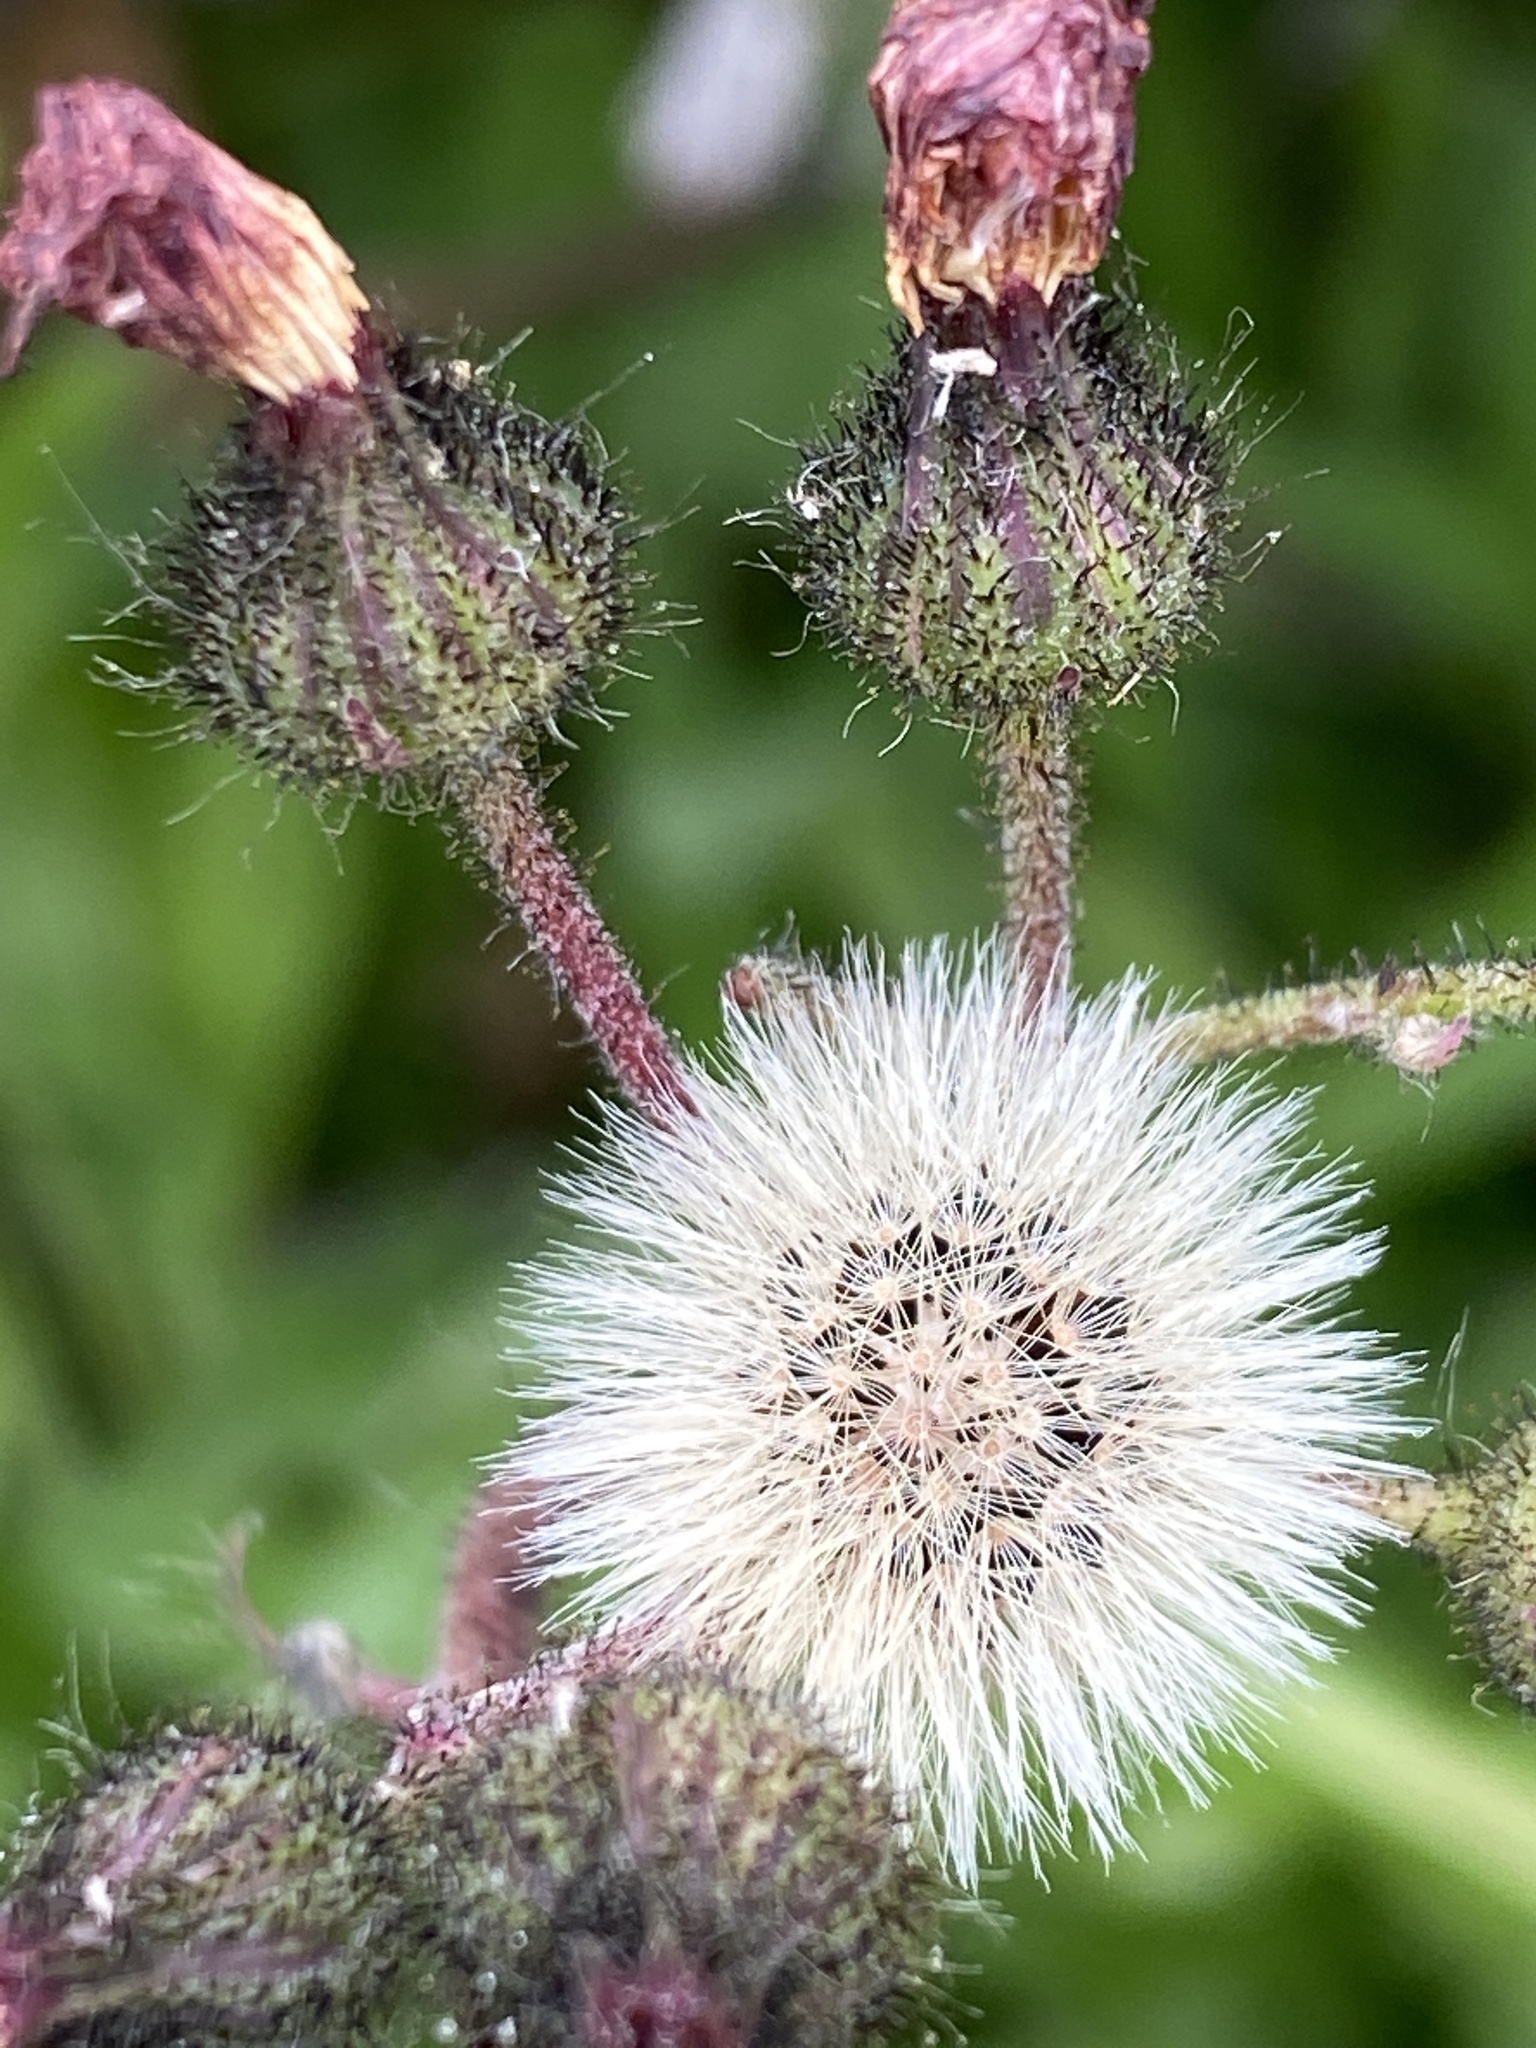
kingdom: Plantae
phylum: Tracheophyta
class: Magnoliopsida
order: Asterales
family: Asteraceae
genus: Pilosella
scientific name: Pilosella aurantiaca
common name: Fox-and-cubs
